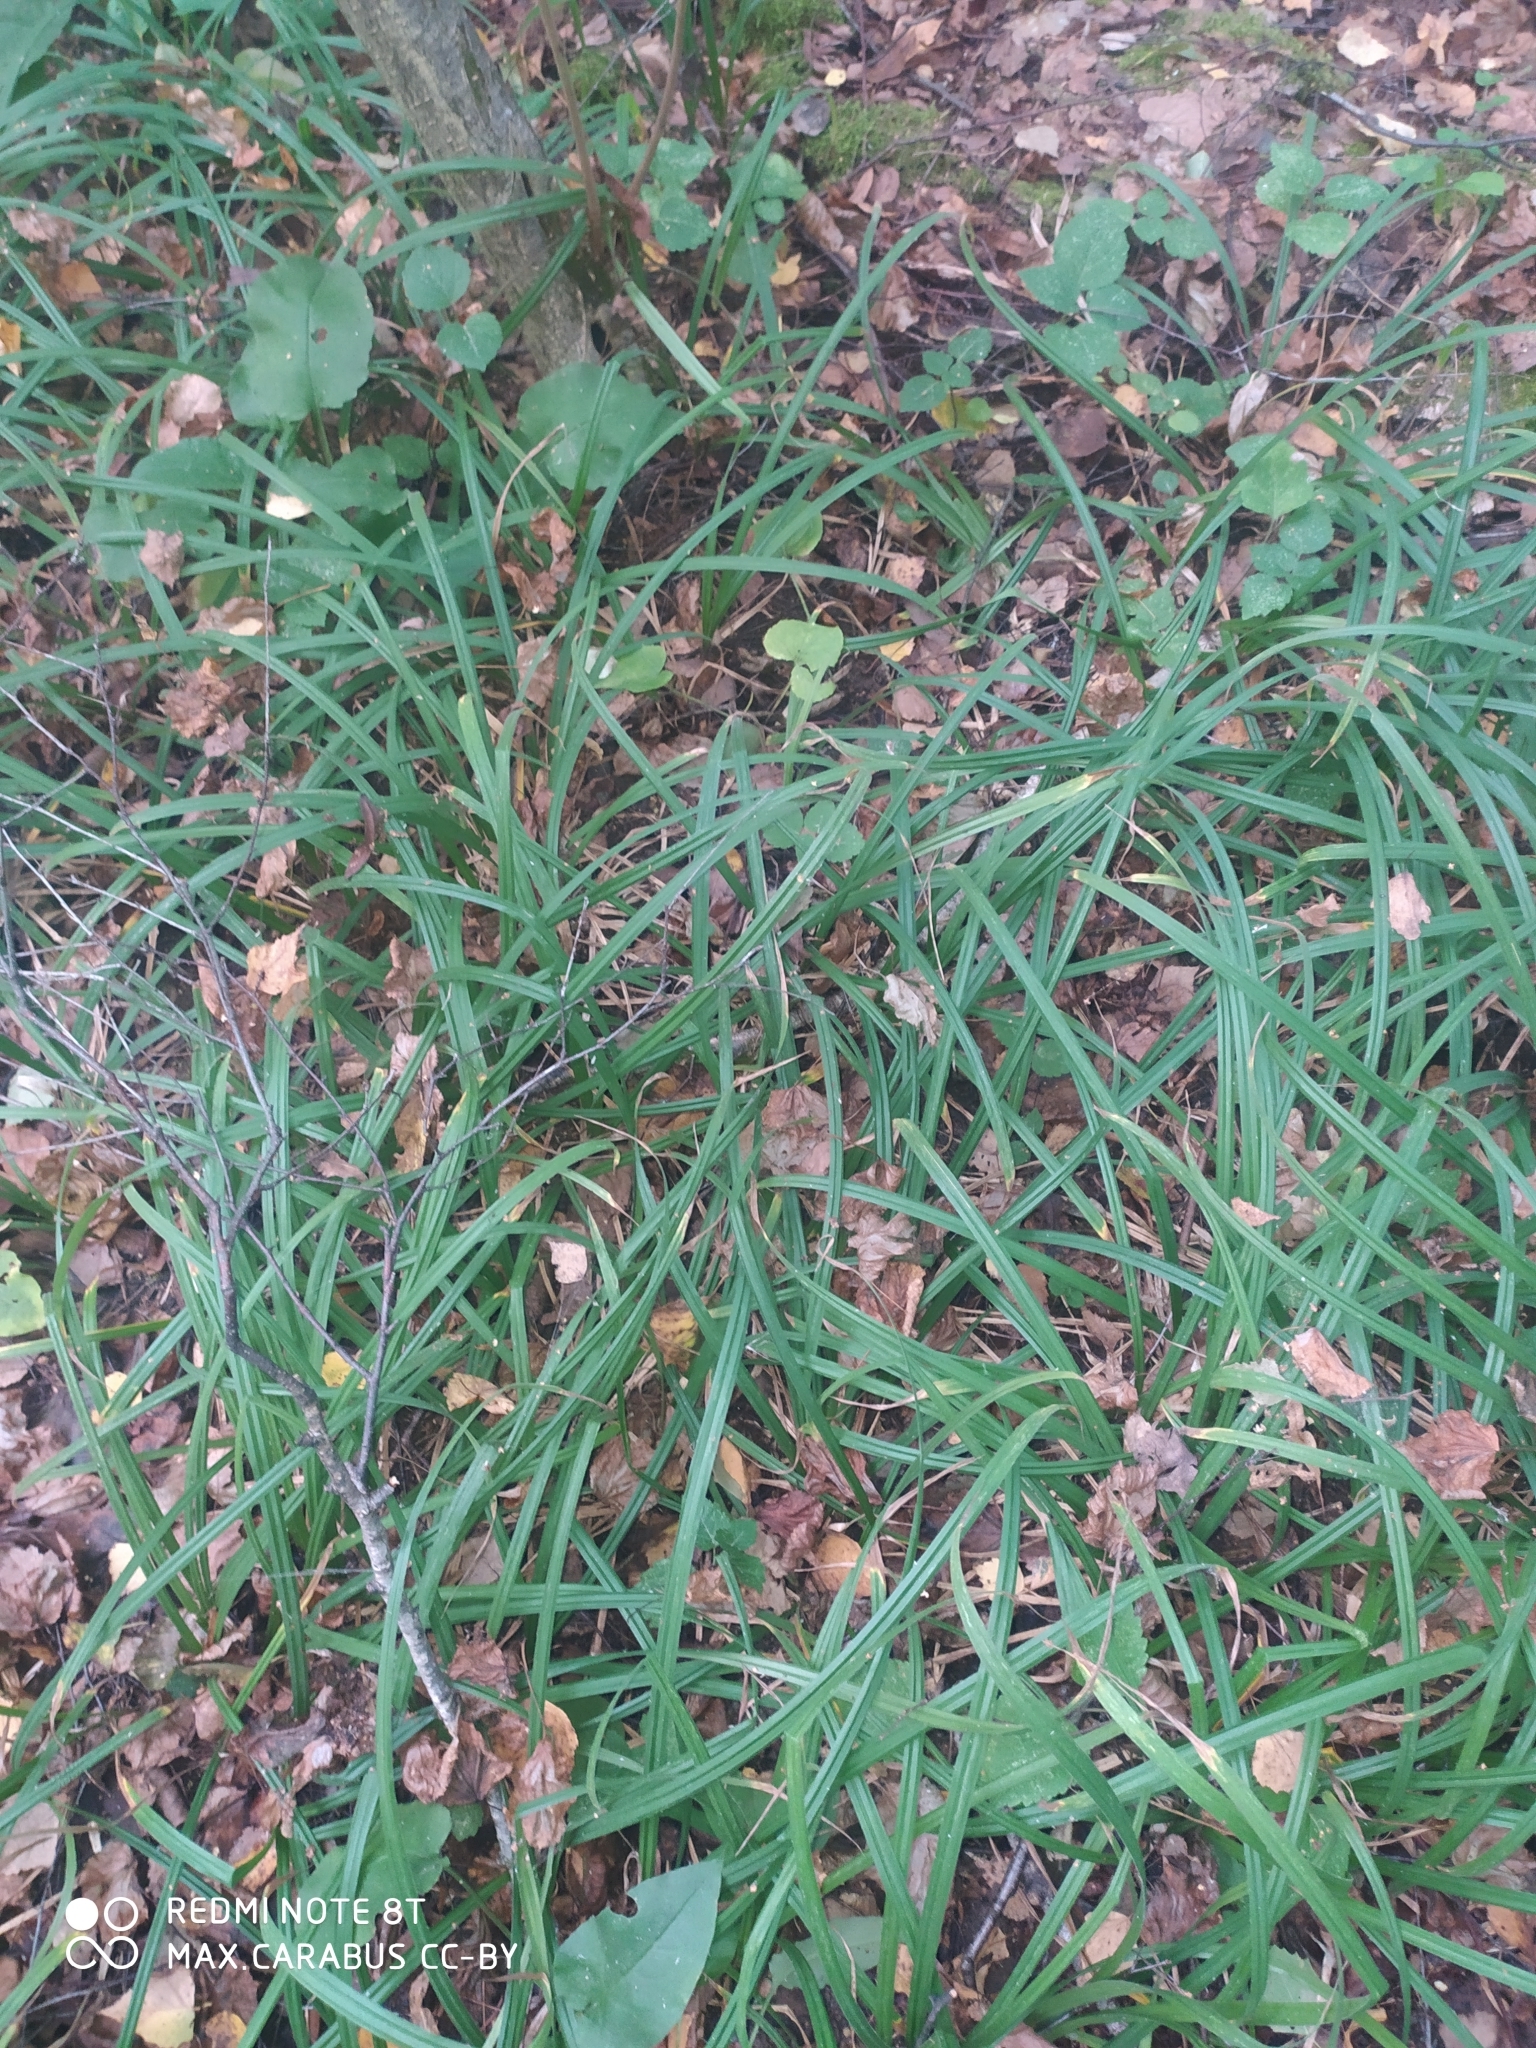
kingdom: Plantae
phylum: Tracheophyta
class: Liliopsida
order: Poales
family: Cyperaceae
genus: Carex
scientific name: Carex pilosa
